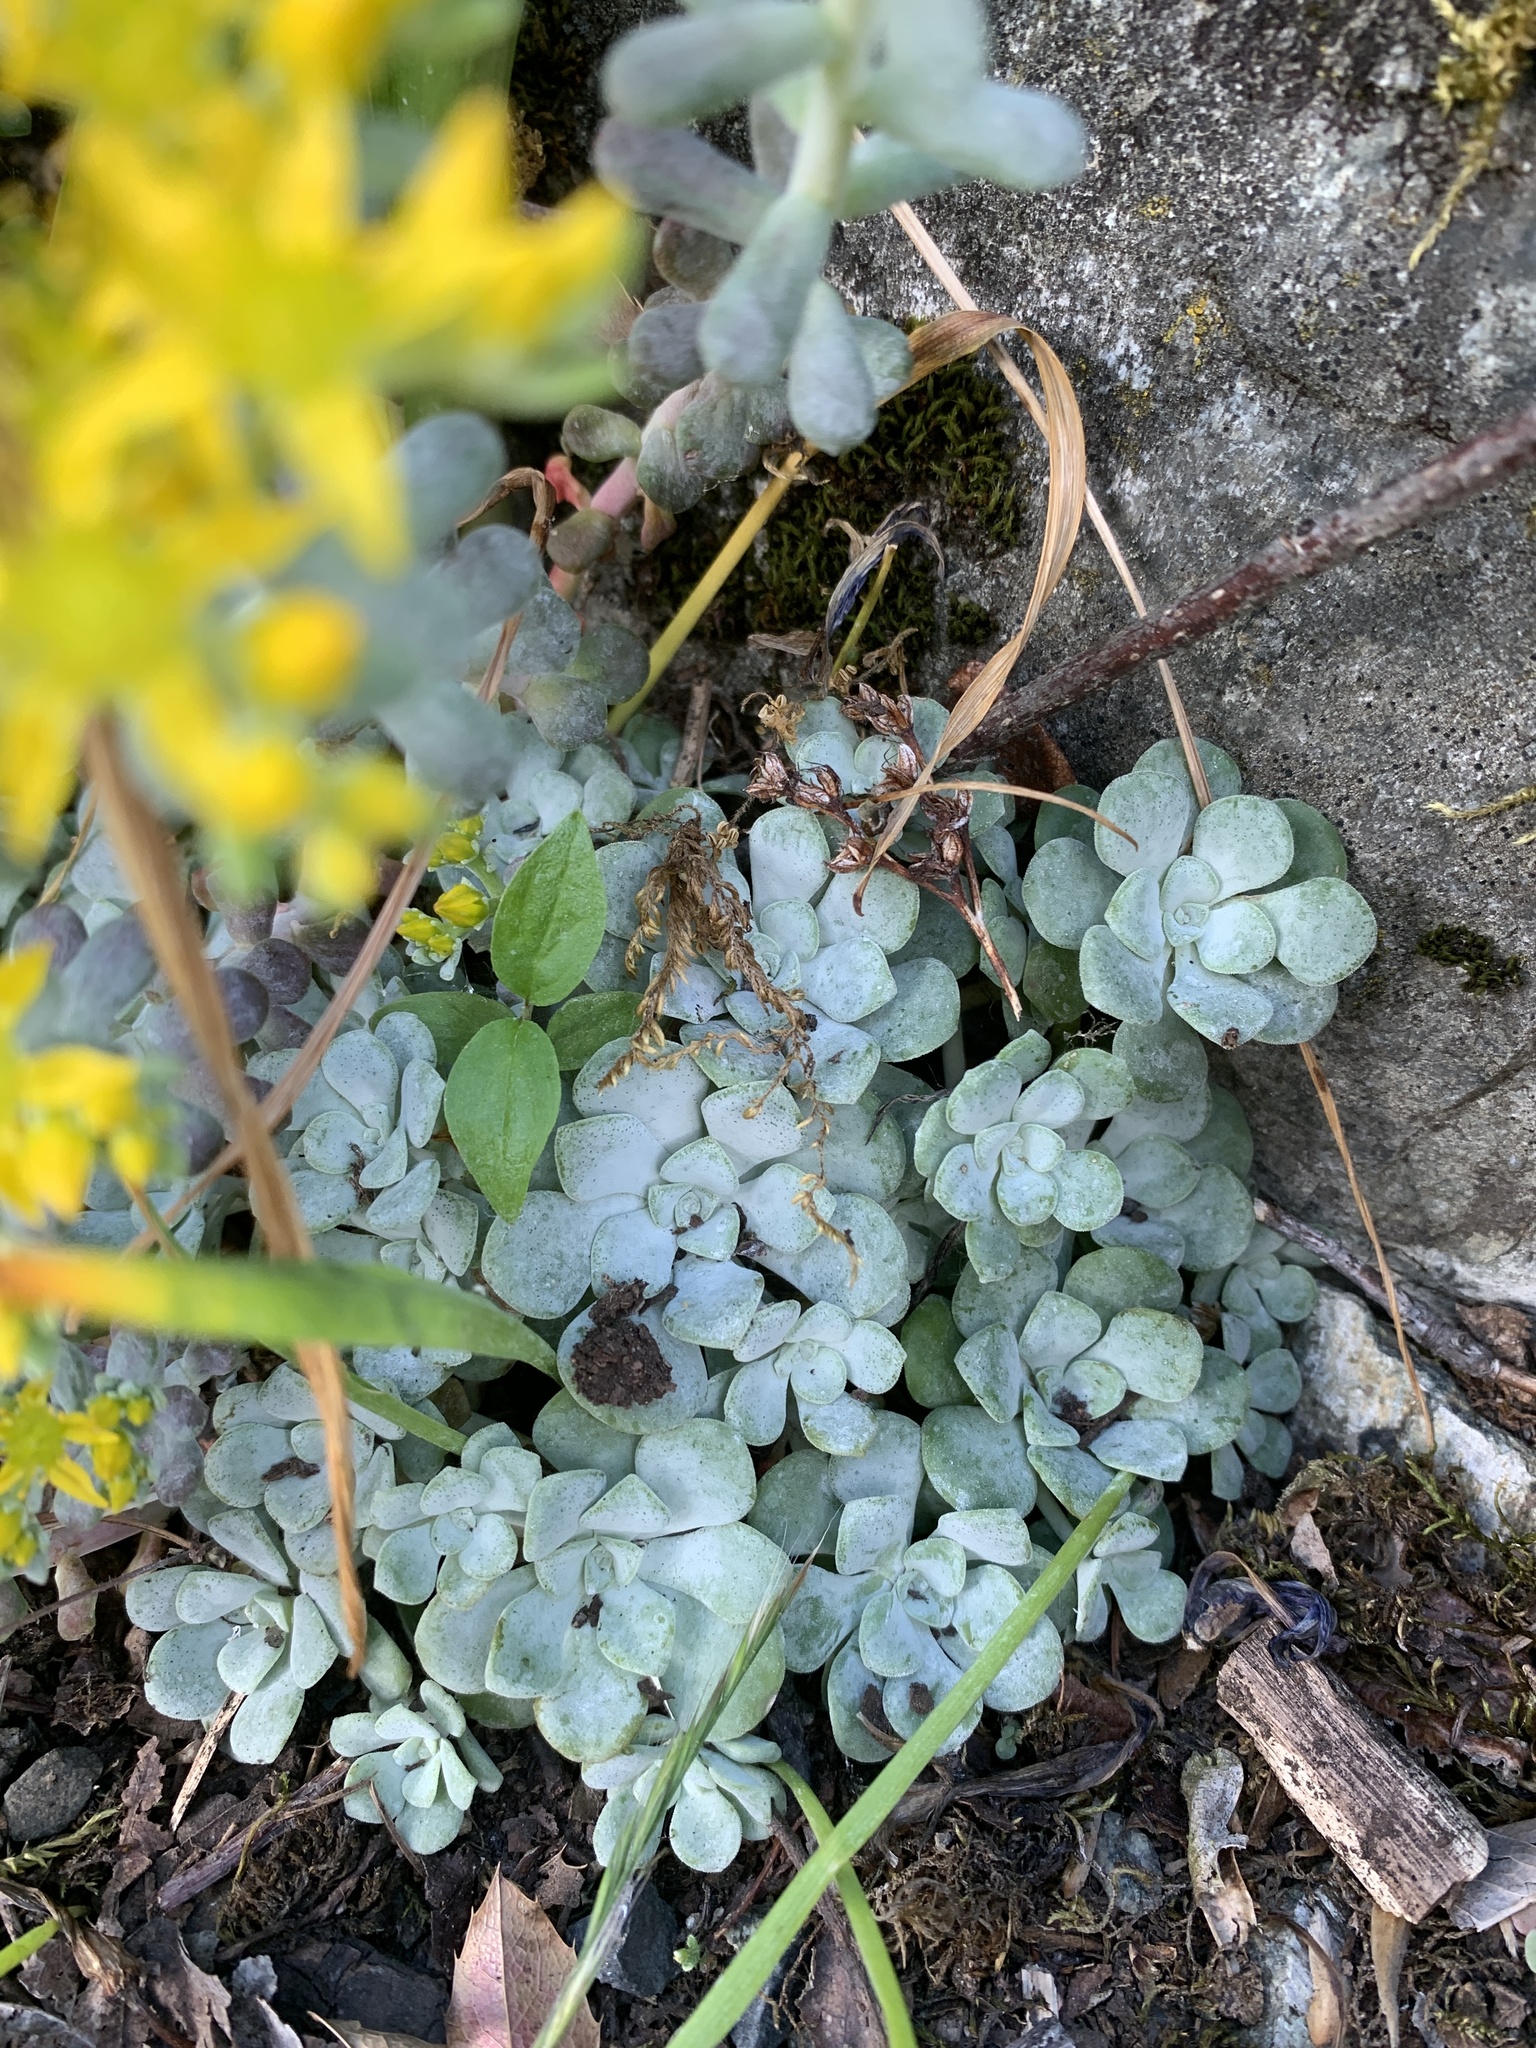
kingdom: Plantae
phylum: Tracheophyta
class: Magnoliopsida
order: Saxifragales
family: Crassulaceae
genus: Sedum
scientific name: Sedum spathulifolium
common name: Colorado stonecrop
